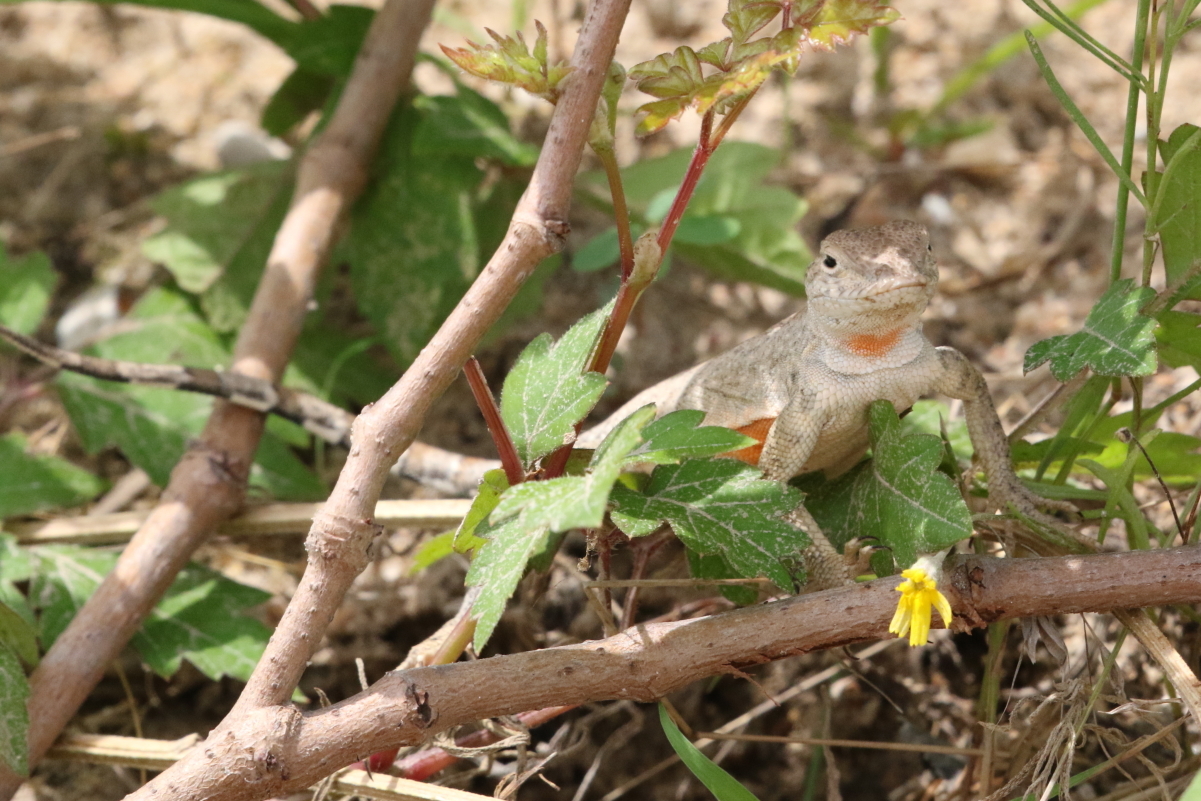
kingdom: Animalia
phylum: Chordata
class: Squamata
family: Phrynosomatidae
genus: Cophosaurus
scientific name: Cophosaurus texanus
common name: Greater earless lizard
